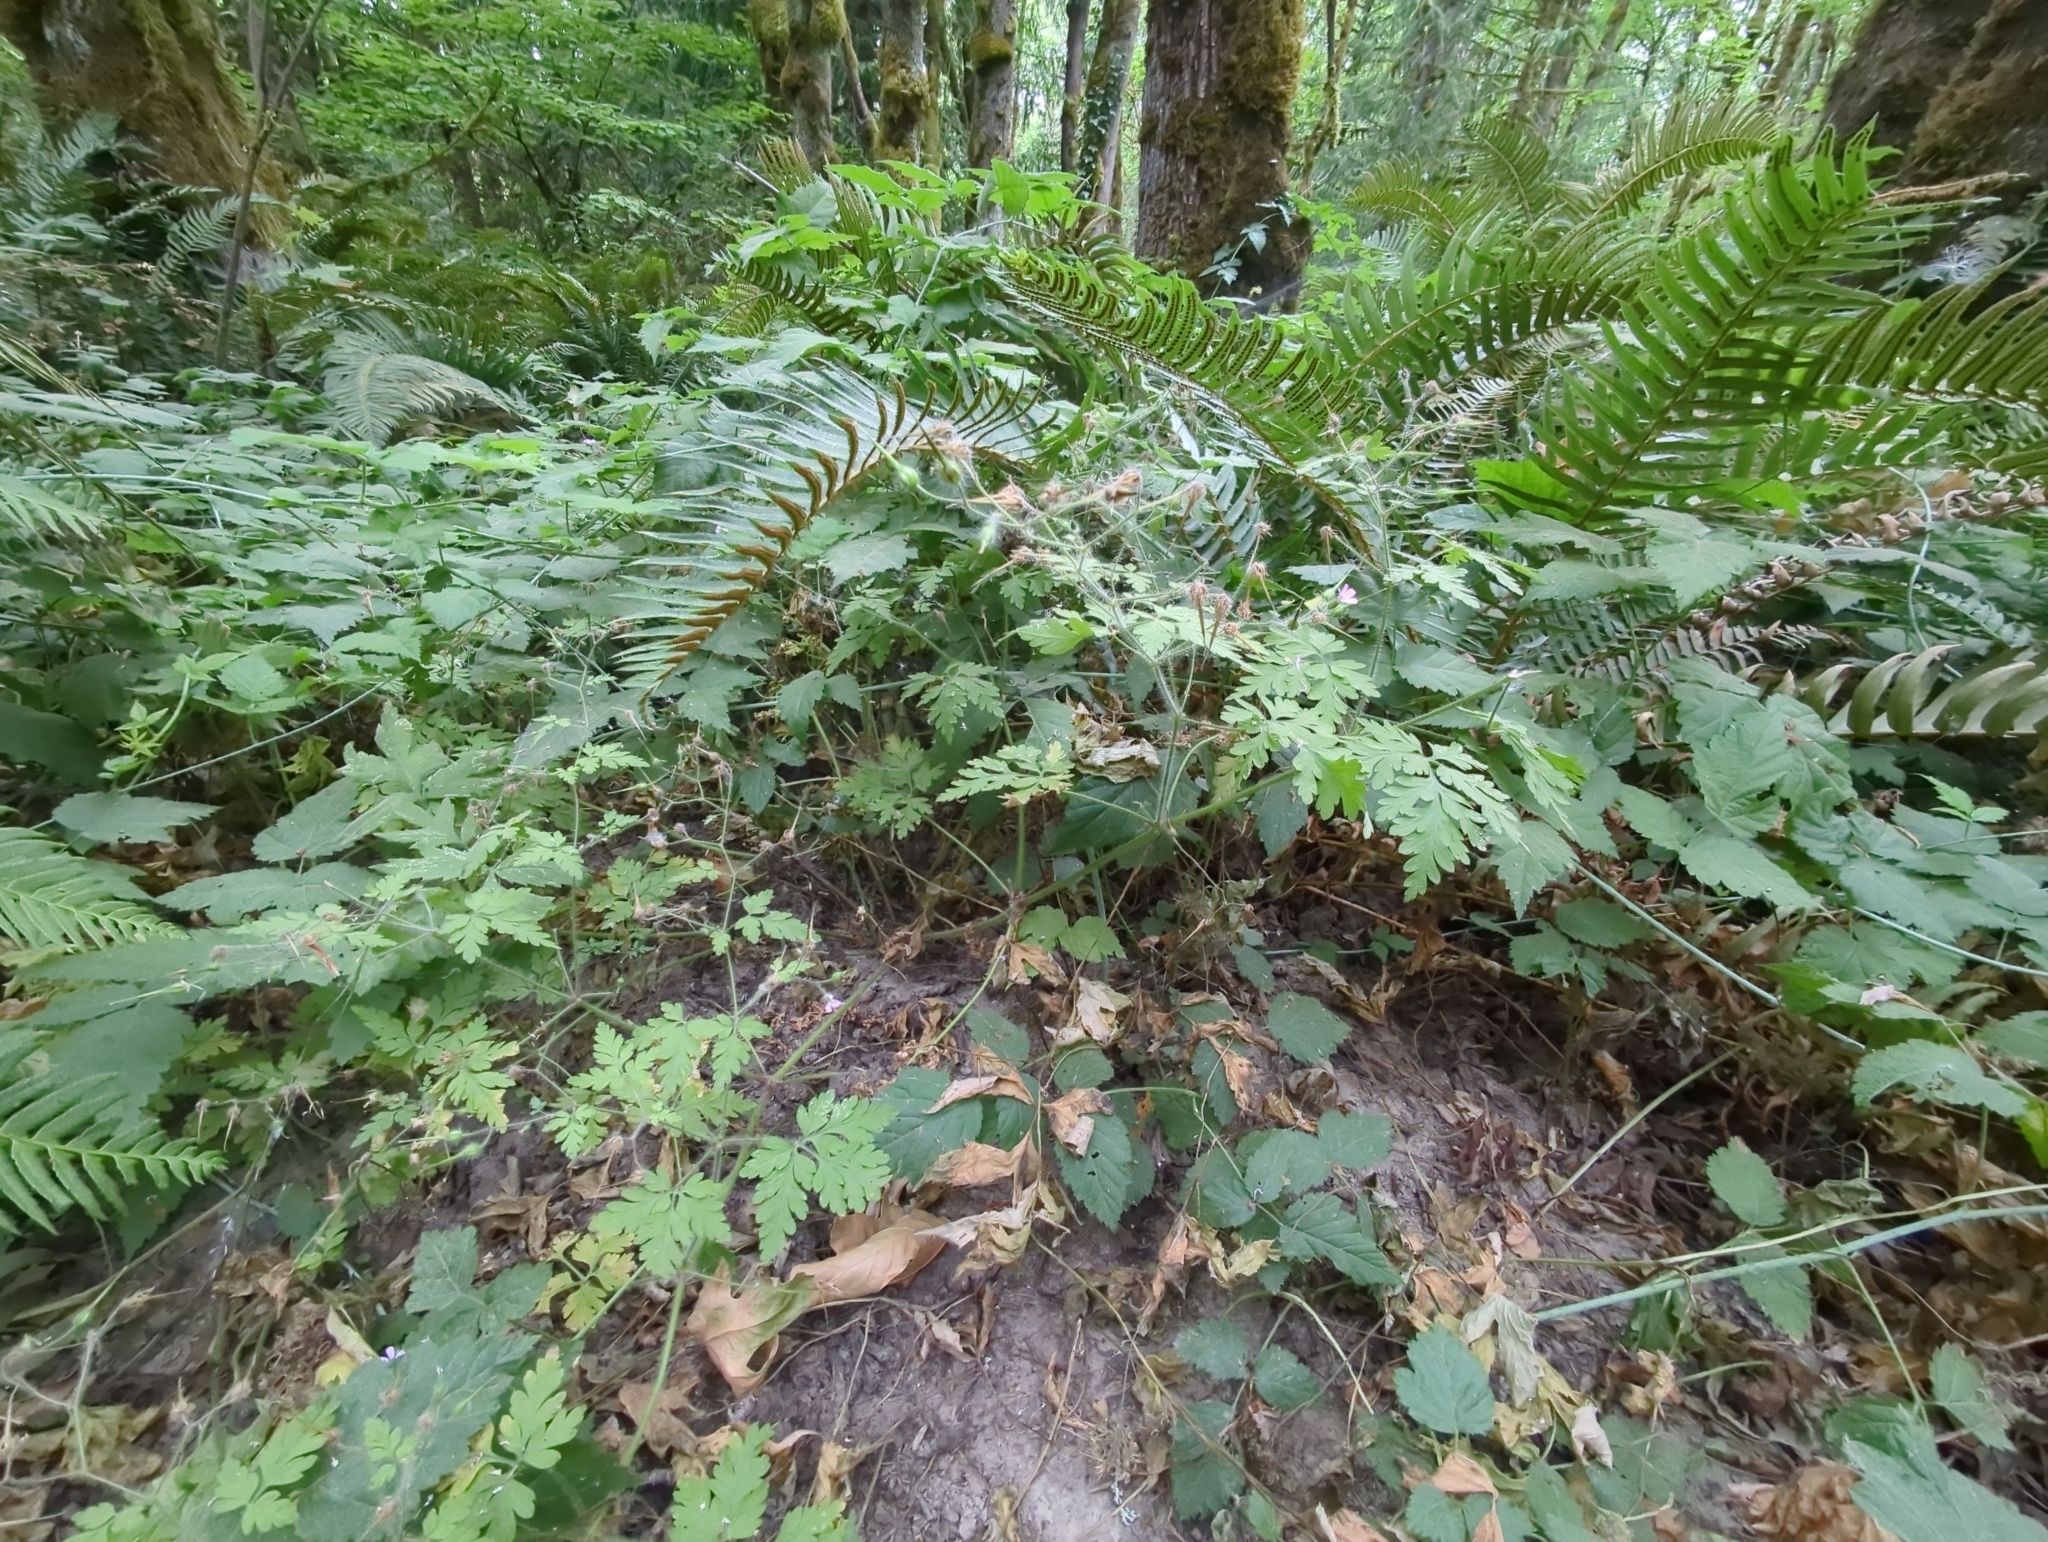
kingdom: Plantae
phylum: Tracheophyta
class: Magnoliopsida
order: Geraniales
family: Geraniaceae
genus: Geranium
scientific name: Geranium robertianum
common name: Herb-robert
